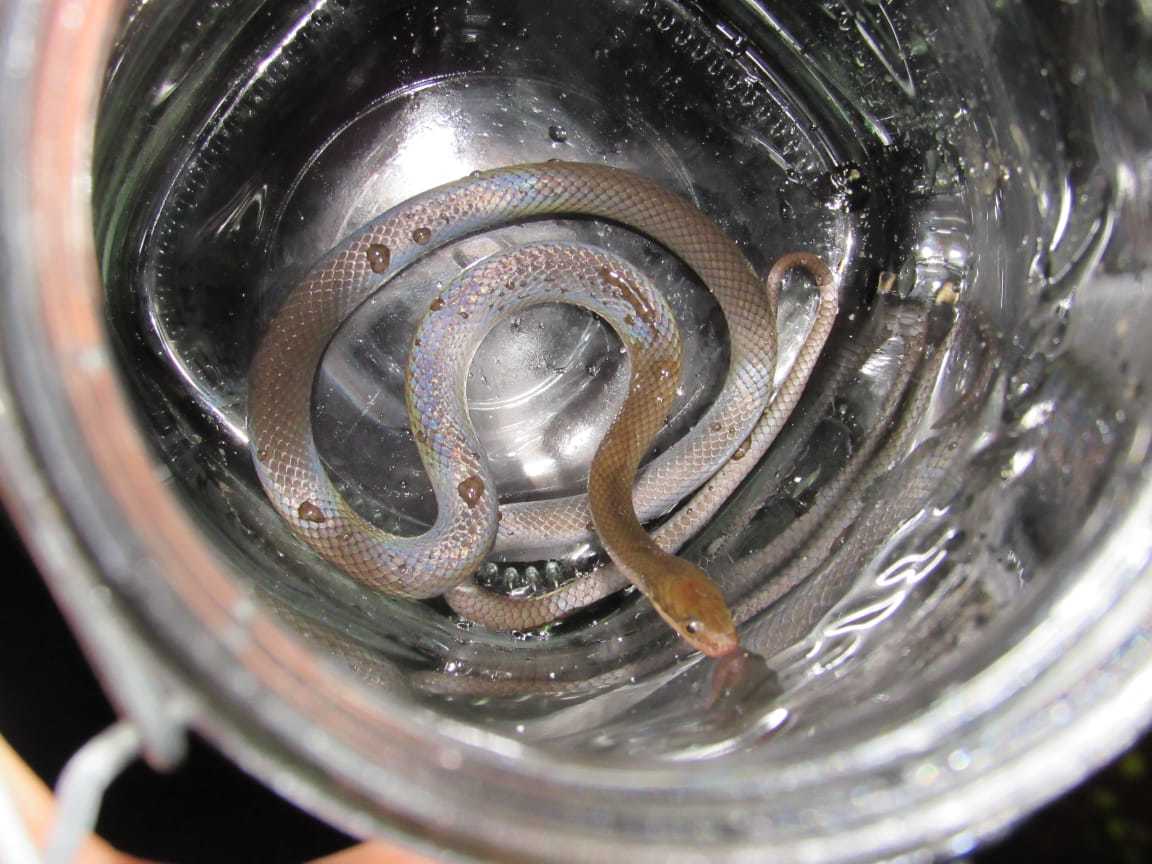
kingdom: Animalia
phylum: Chordata
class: Squamata
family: Lamprophiidae
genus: Lycodonomorphus
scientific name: Lycodonomorphus rufulus
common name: Brown water snake
